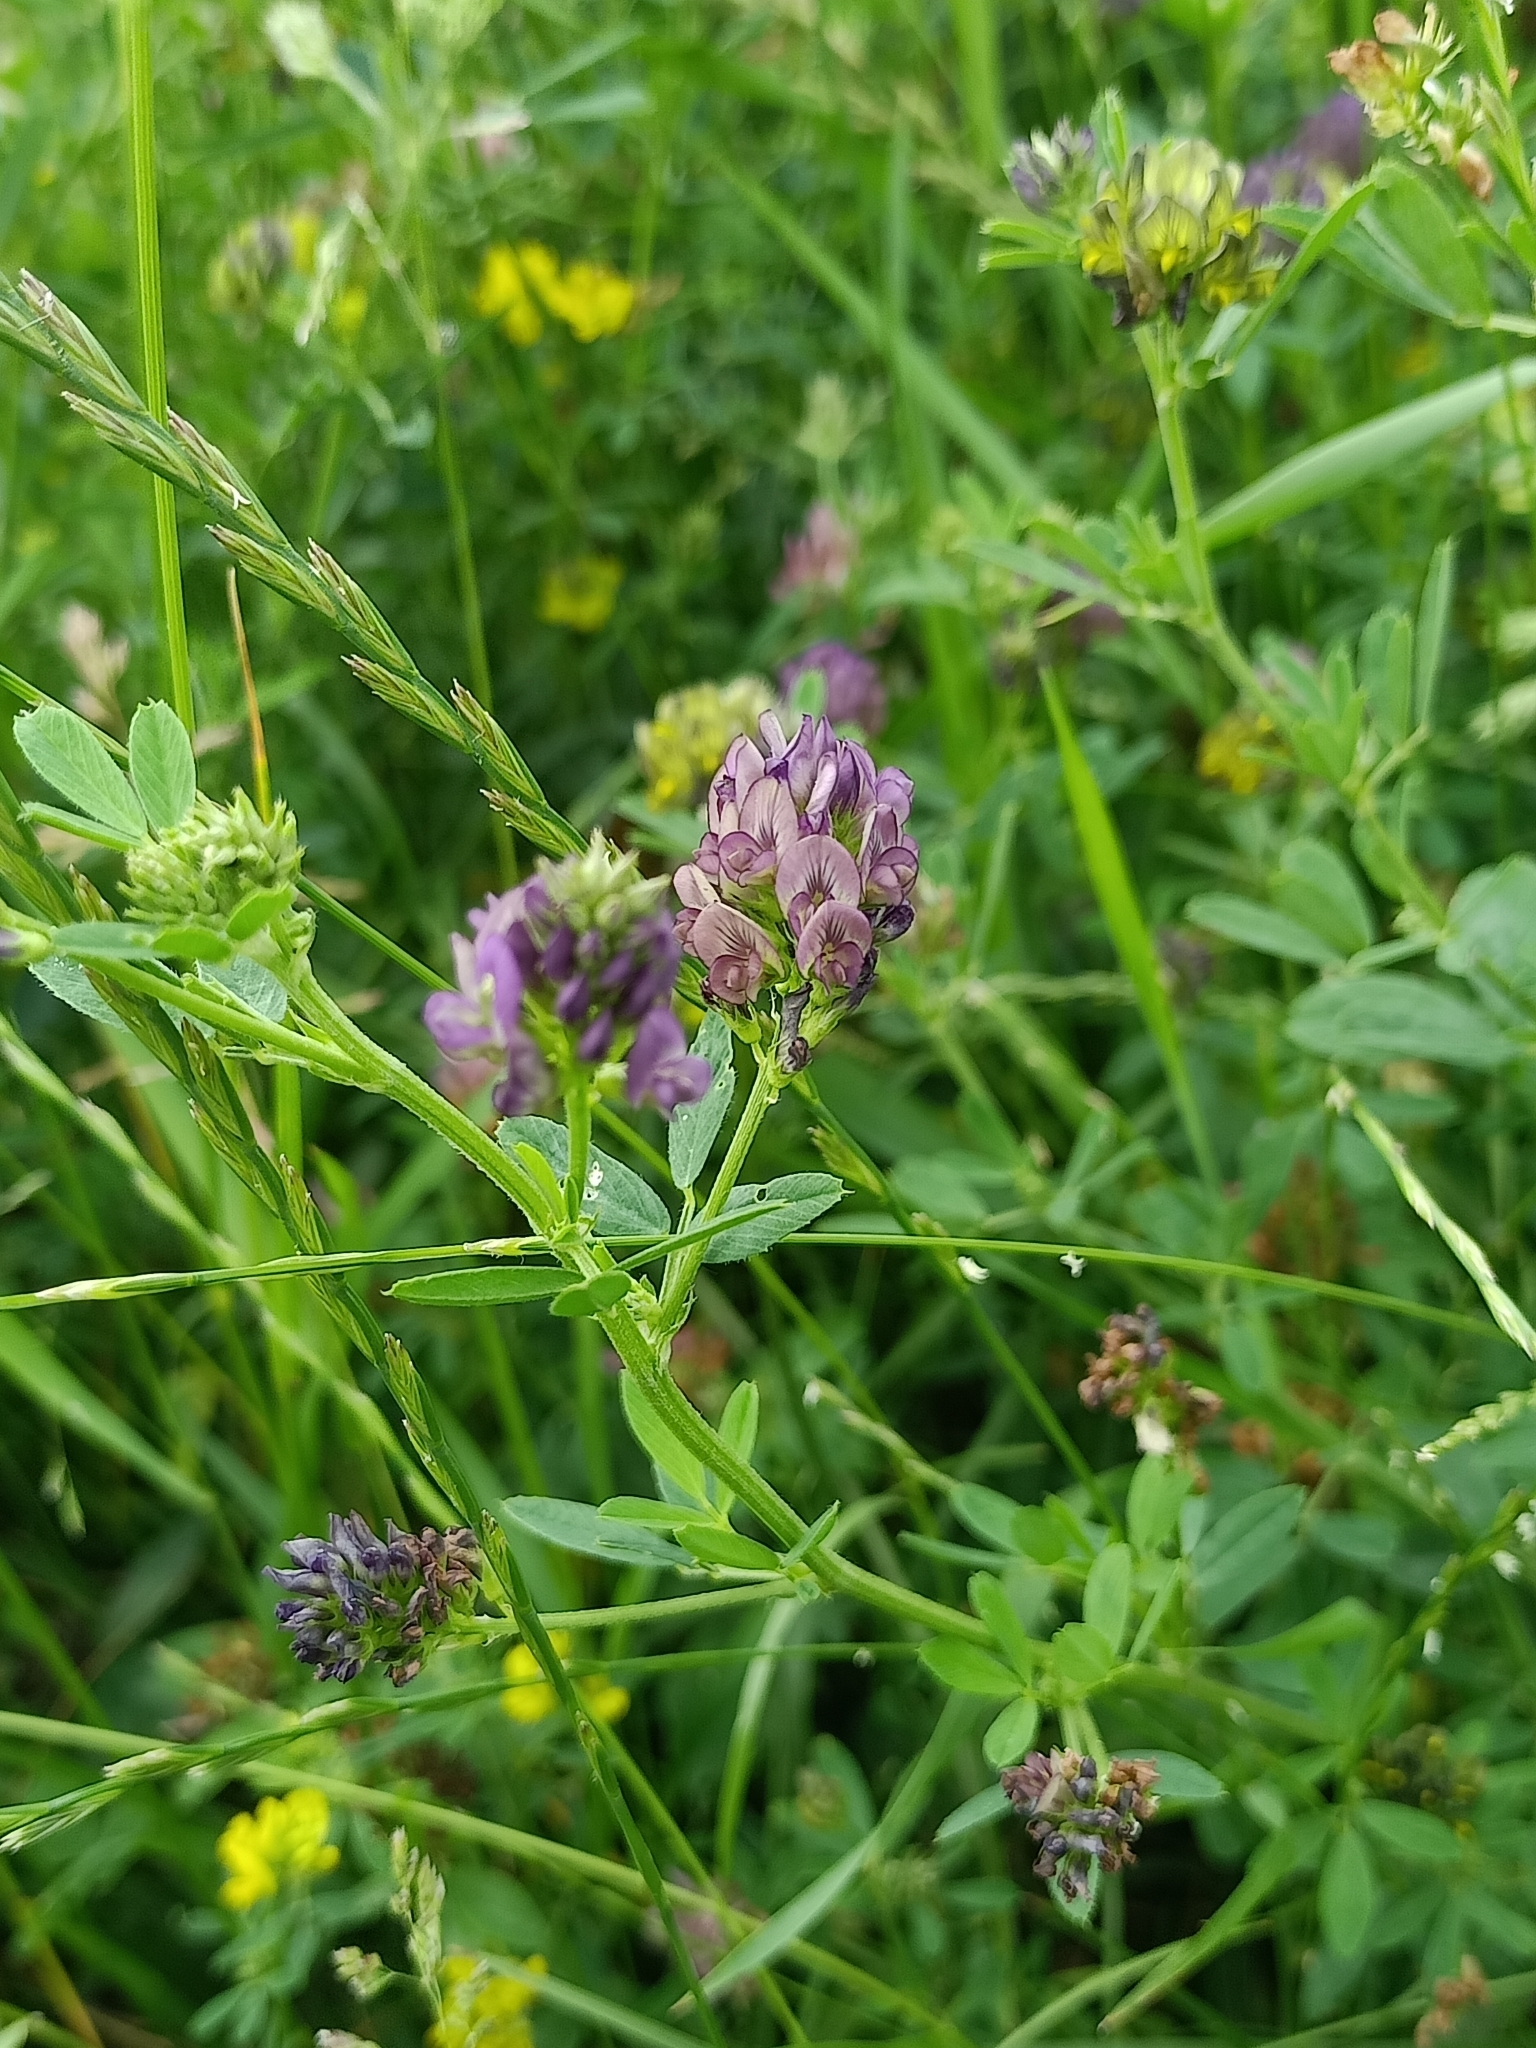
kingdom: Plantae
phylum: Tracheophyta
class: Magnoliopsida
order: Fabales
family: Fabaceae
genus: Medicago
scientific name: Medicago varia
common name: Sand lucerne
